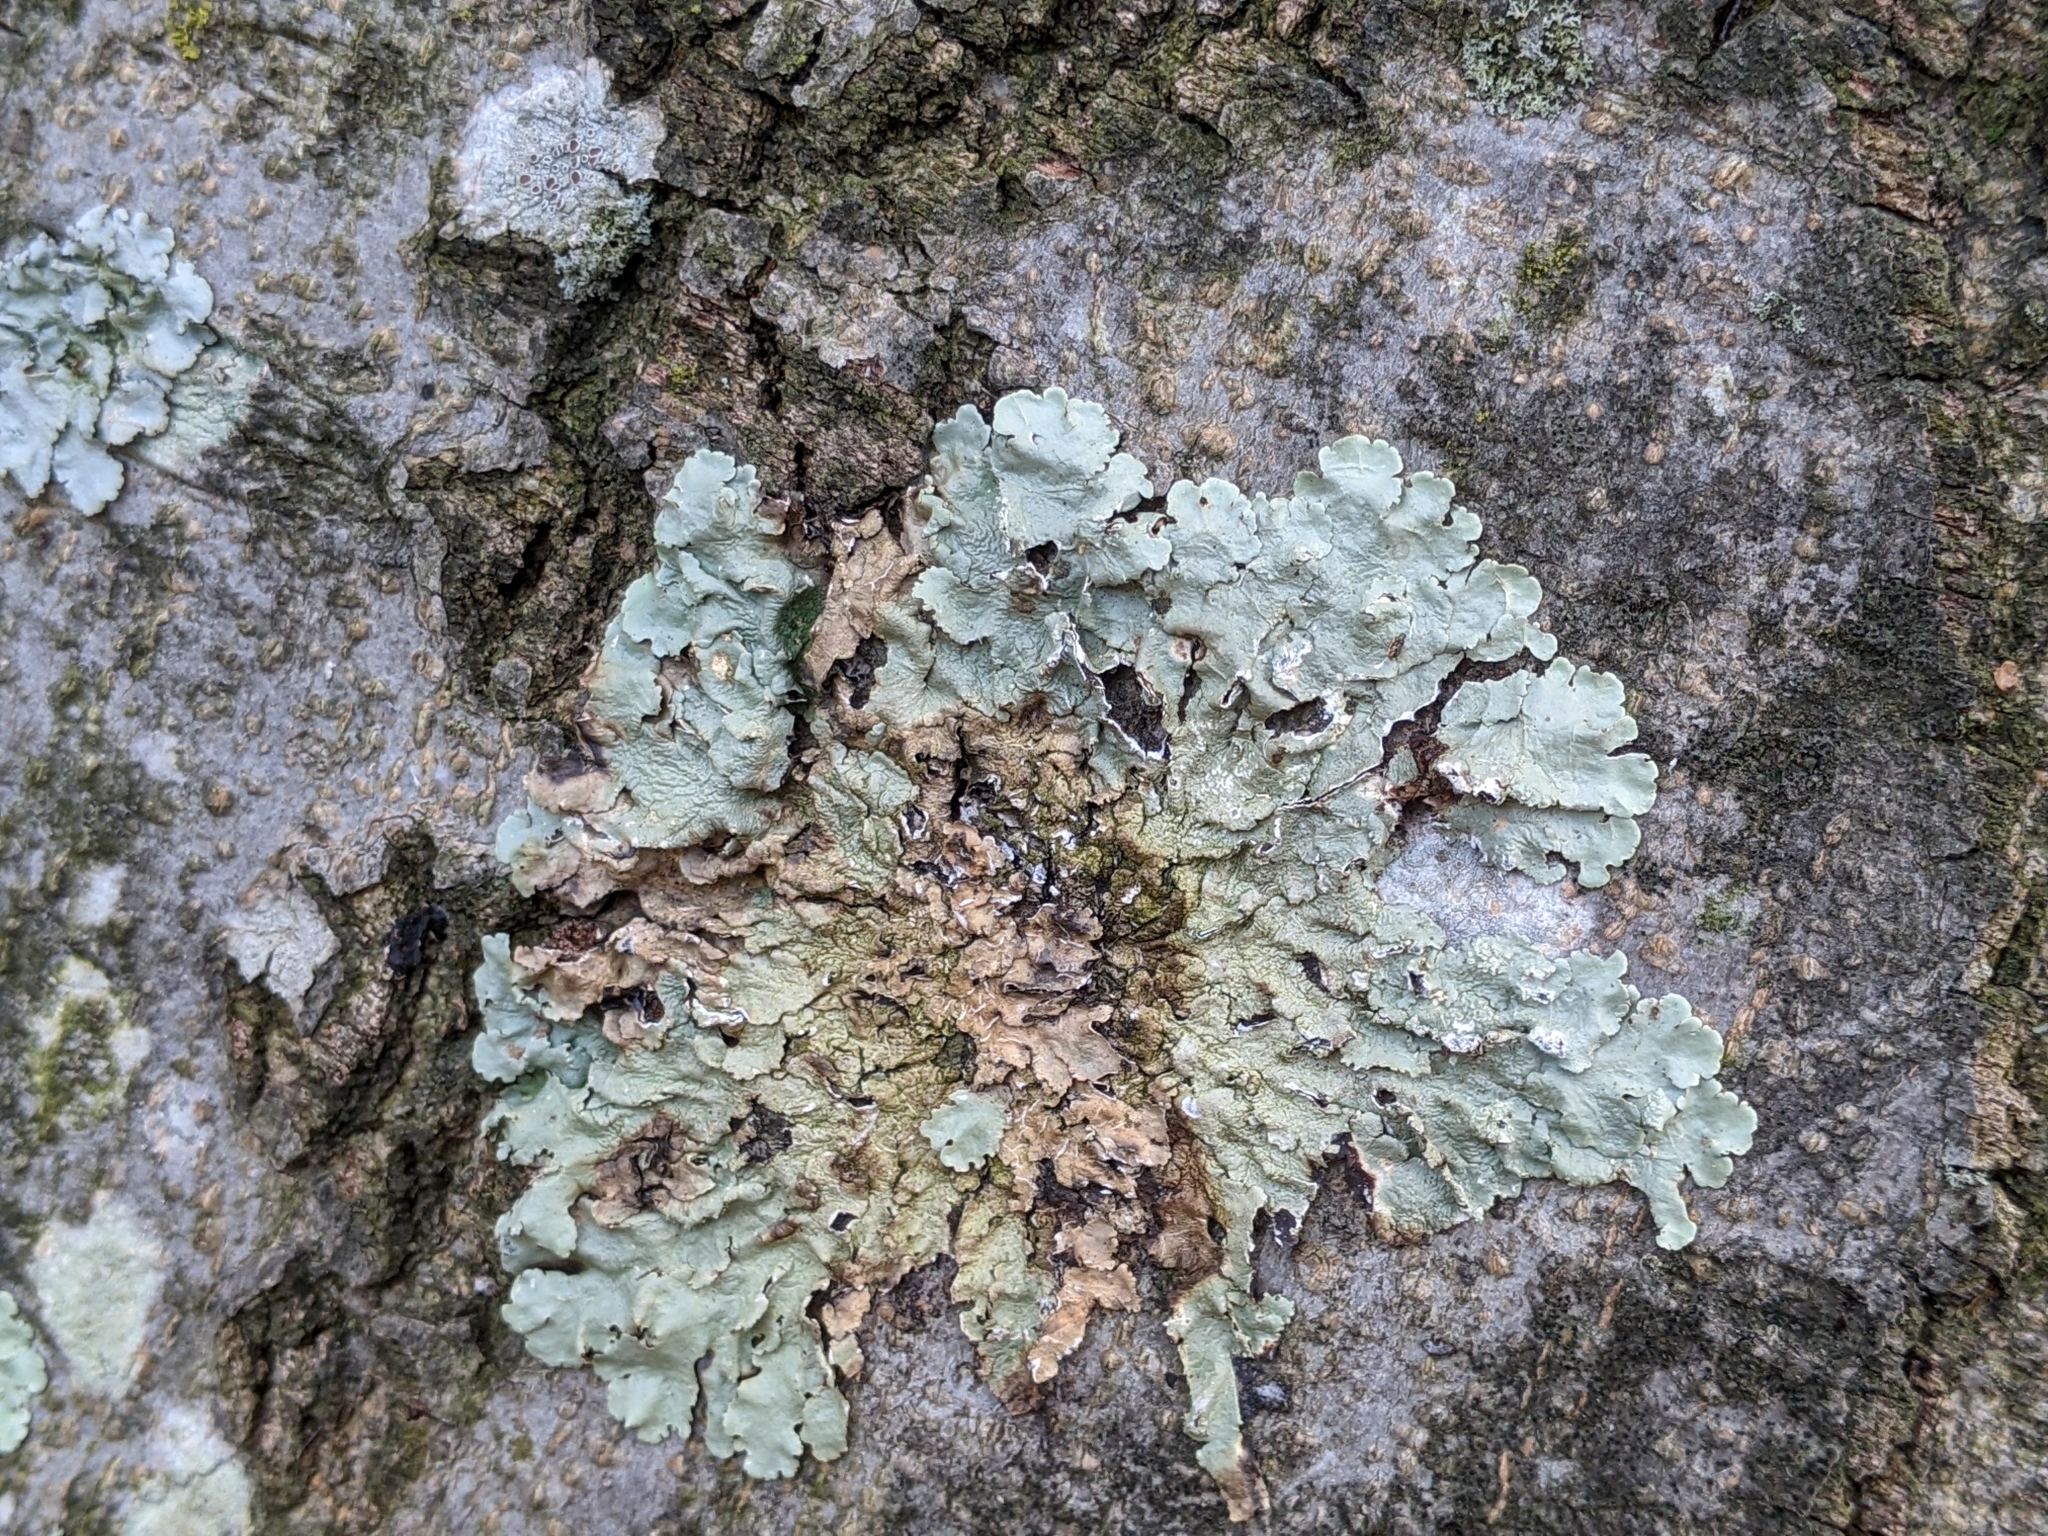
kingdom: Fungi
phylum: Ascomycota
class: Lecanoromycetes
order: Lecanorales
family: Parmeliaceae
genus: Flavoparmelia
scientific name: Flavoparmelia caperata
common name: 40-mile per hour lichen
